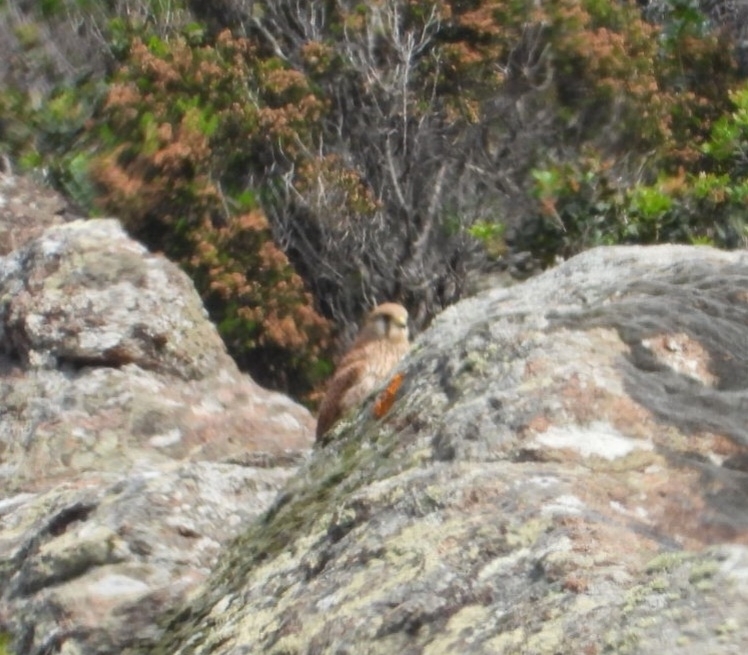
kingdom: Animalia
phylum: Chordata
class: Aves
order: Falconiformes
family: Falconidae
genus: Falco
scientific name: Falco tinnunculus
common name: Common kestrel
